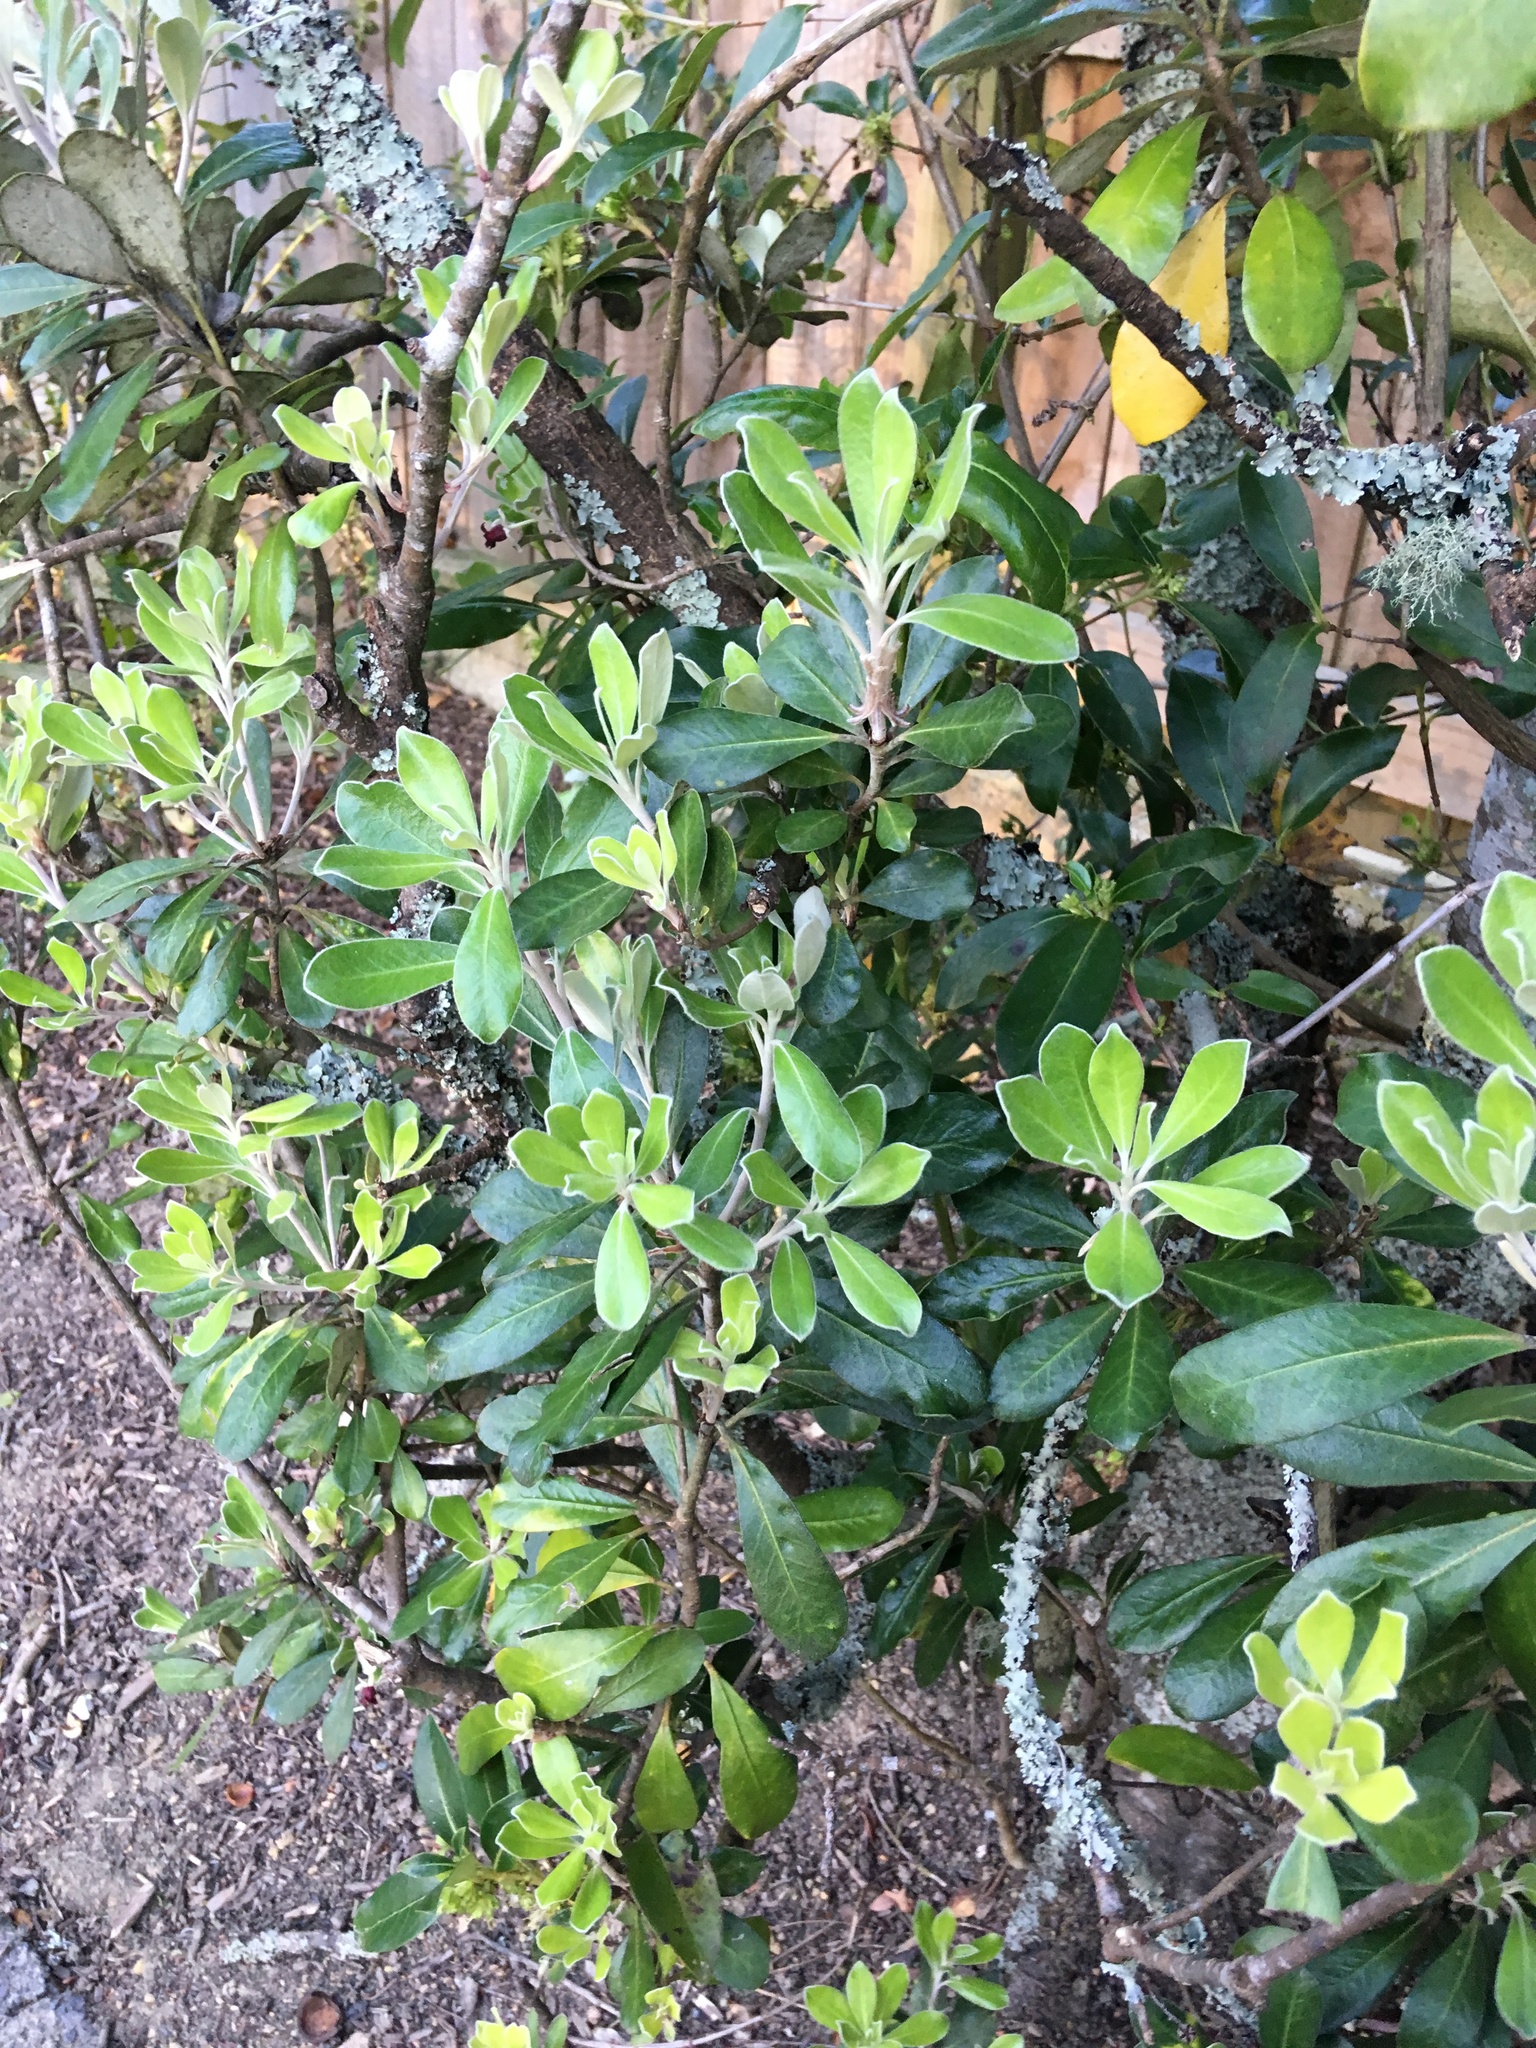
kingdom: Plantae
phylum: Tracheophyta
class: Magnoliopsida
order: Apiales
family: Pittosporaceae
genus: Pittosporum
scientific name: Pittosporum crassifolium
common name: Karo
